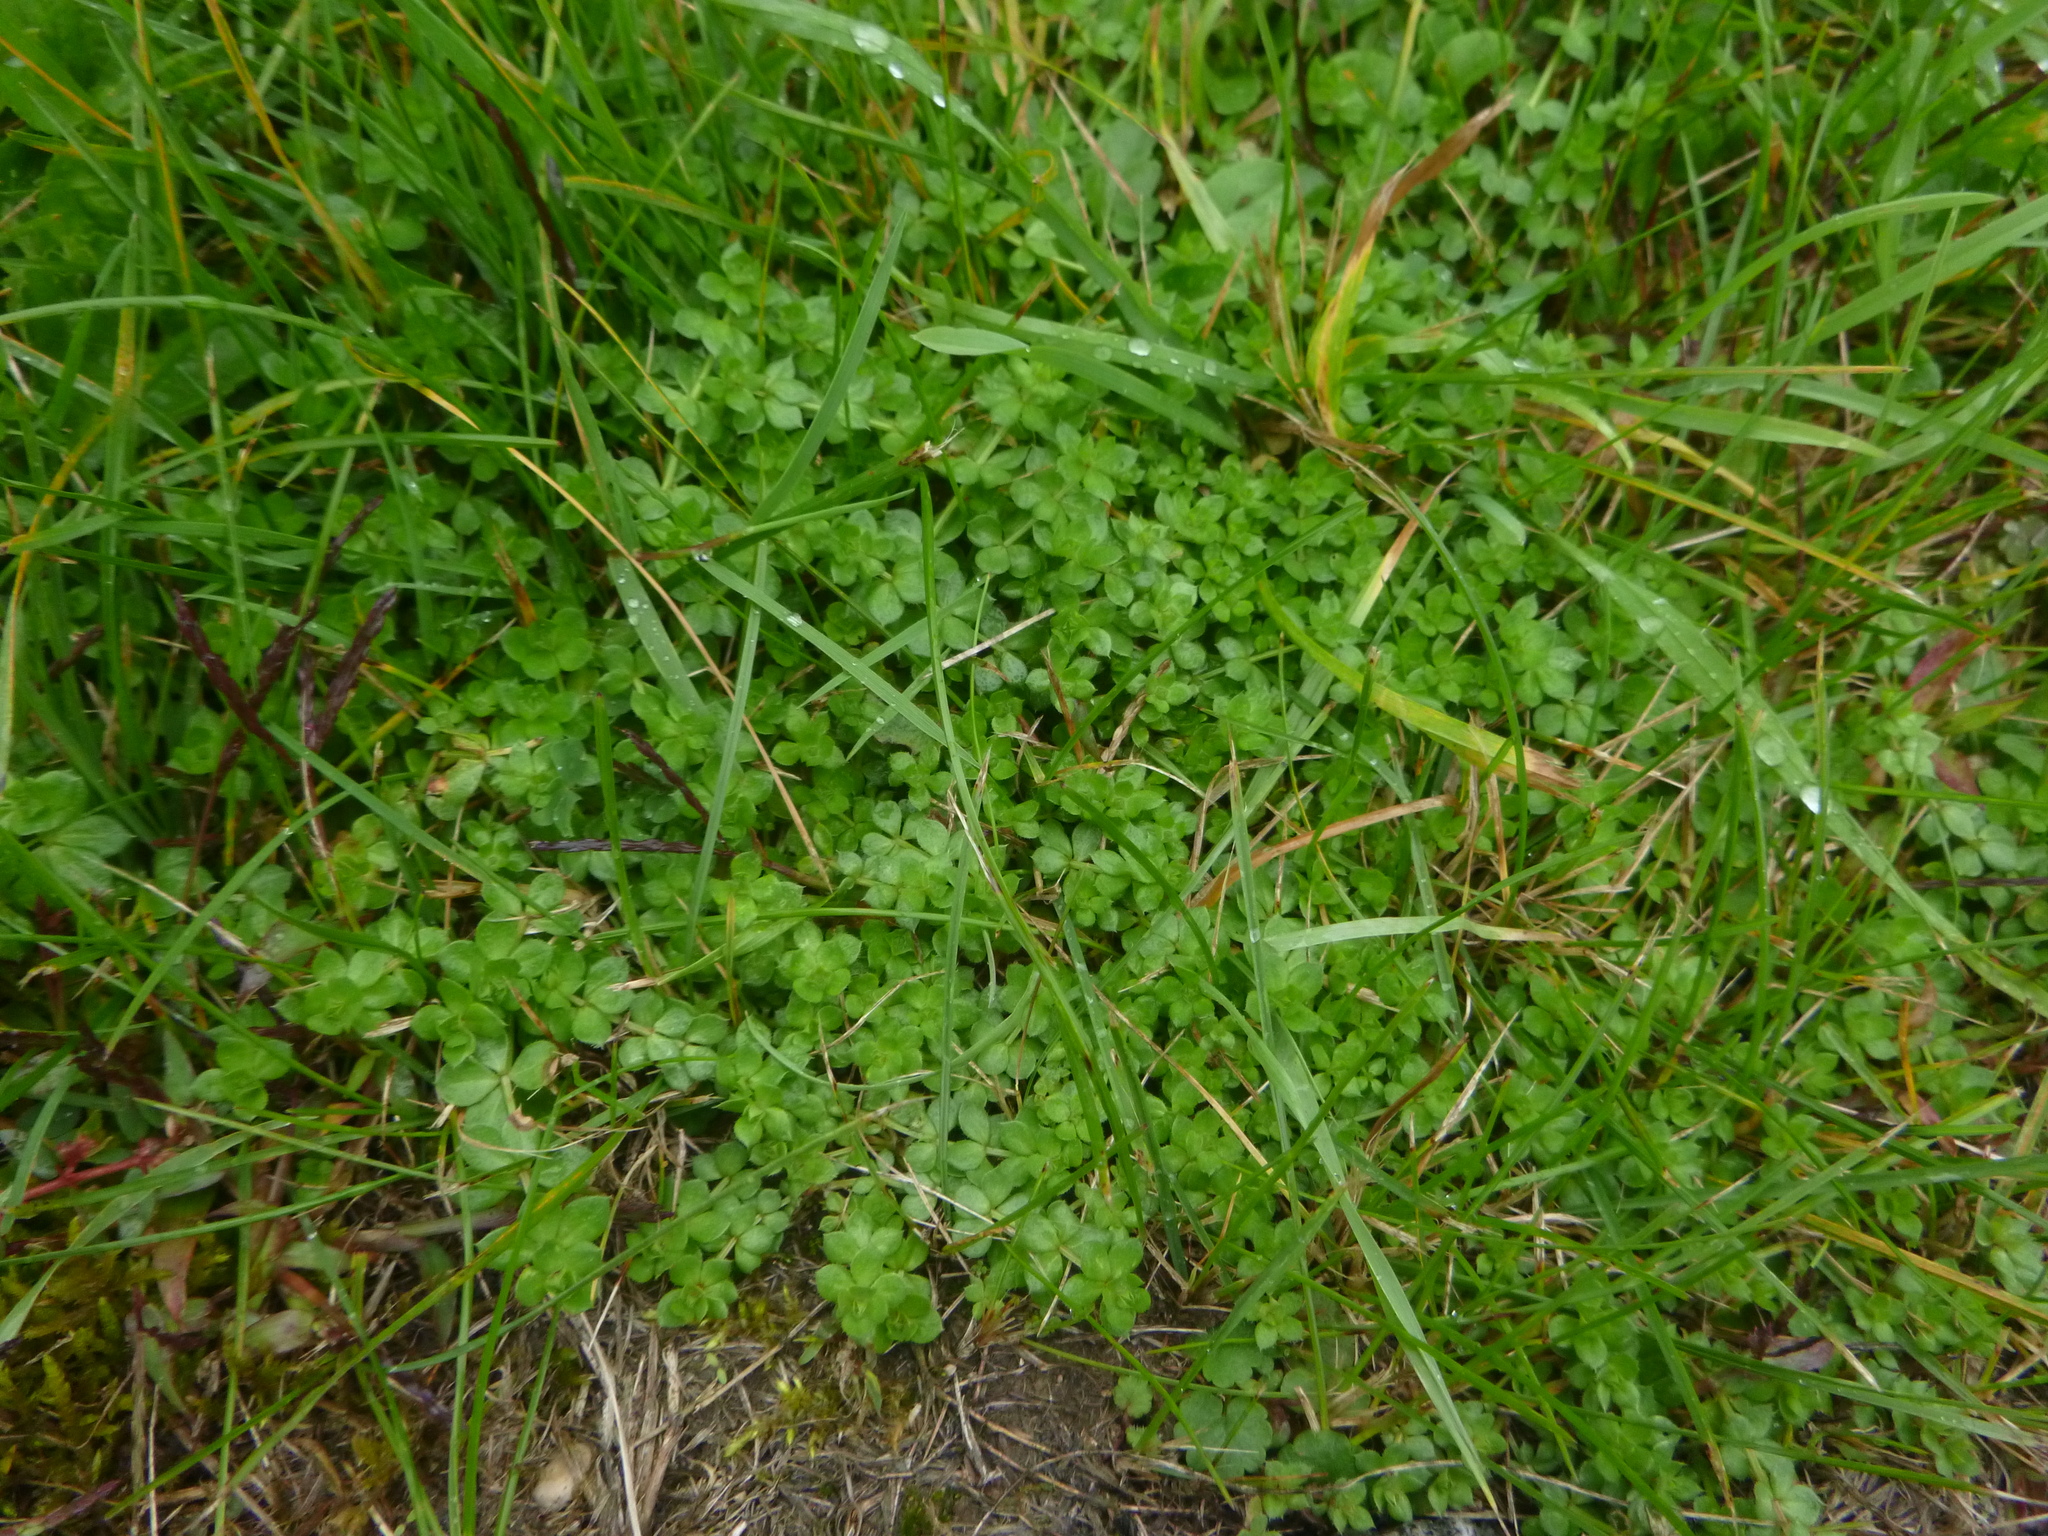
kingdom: Plantae
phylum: Tracheophyta
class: Magnoliopsida
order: Gentianales
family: Rubiaceae
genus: Sherardia
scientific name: Sherardia arvensis
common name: Field madder
